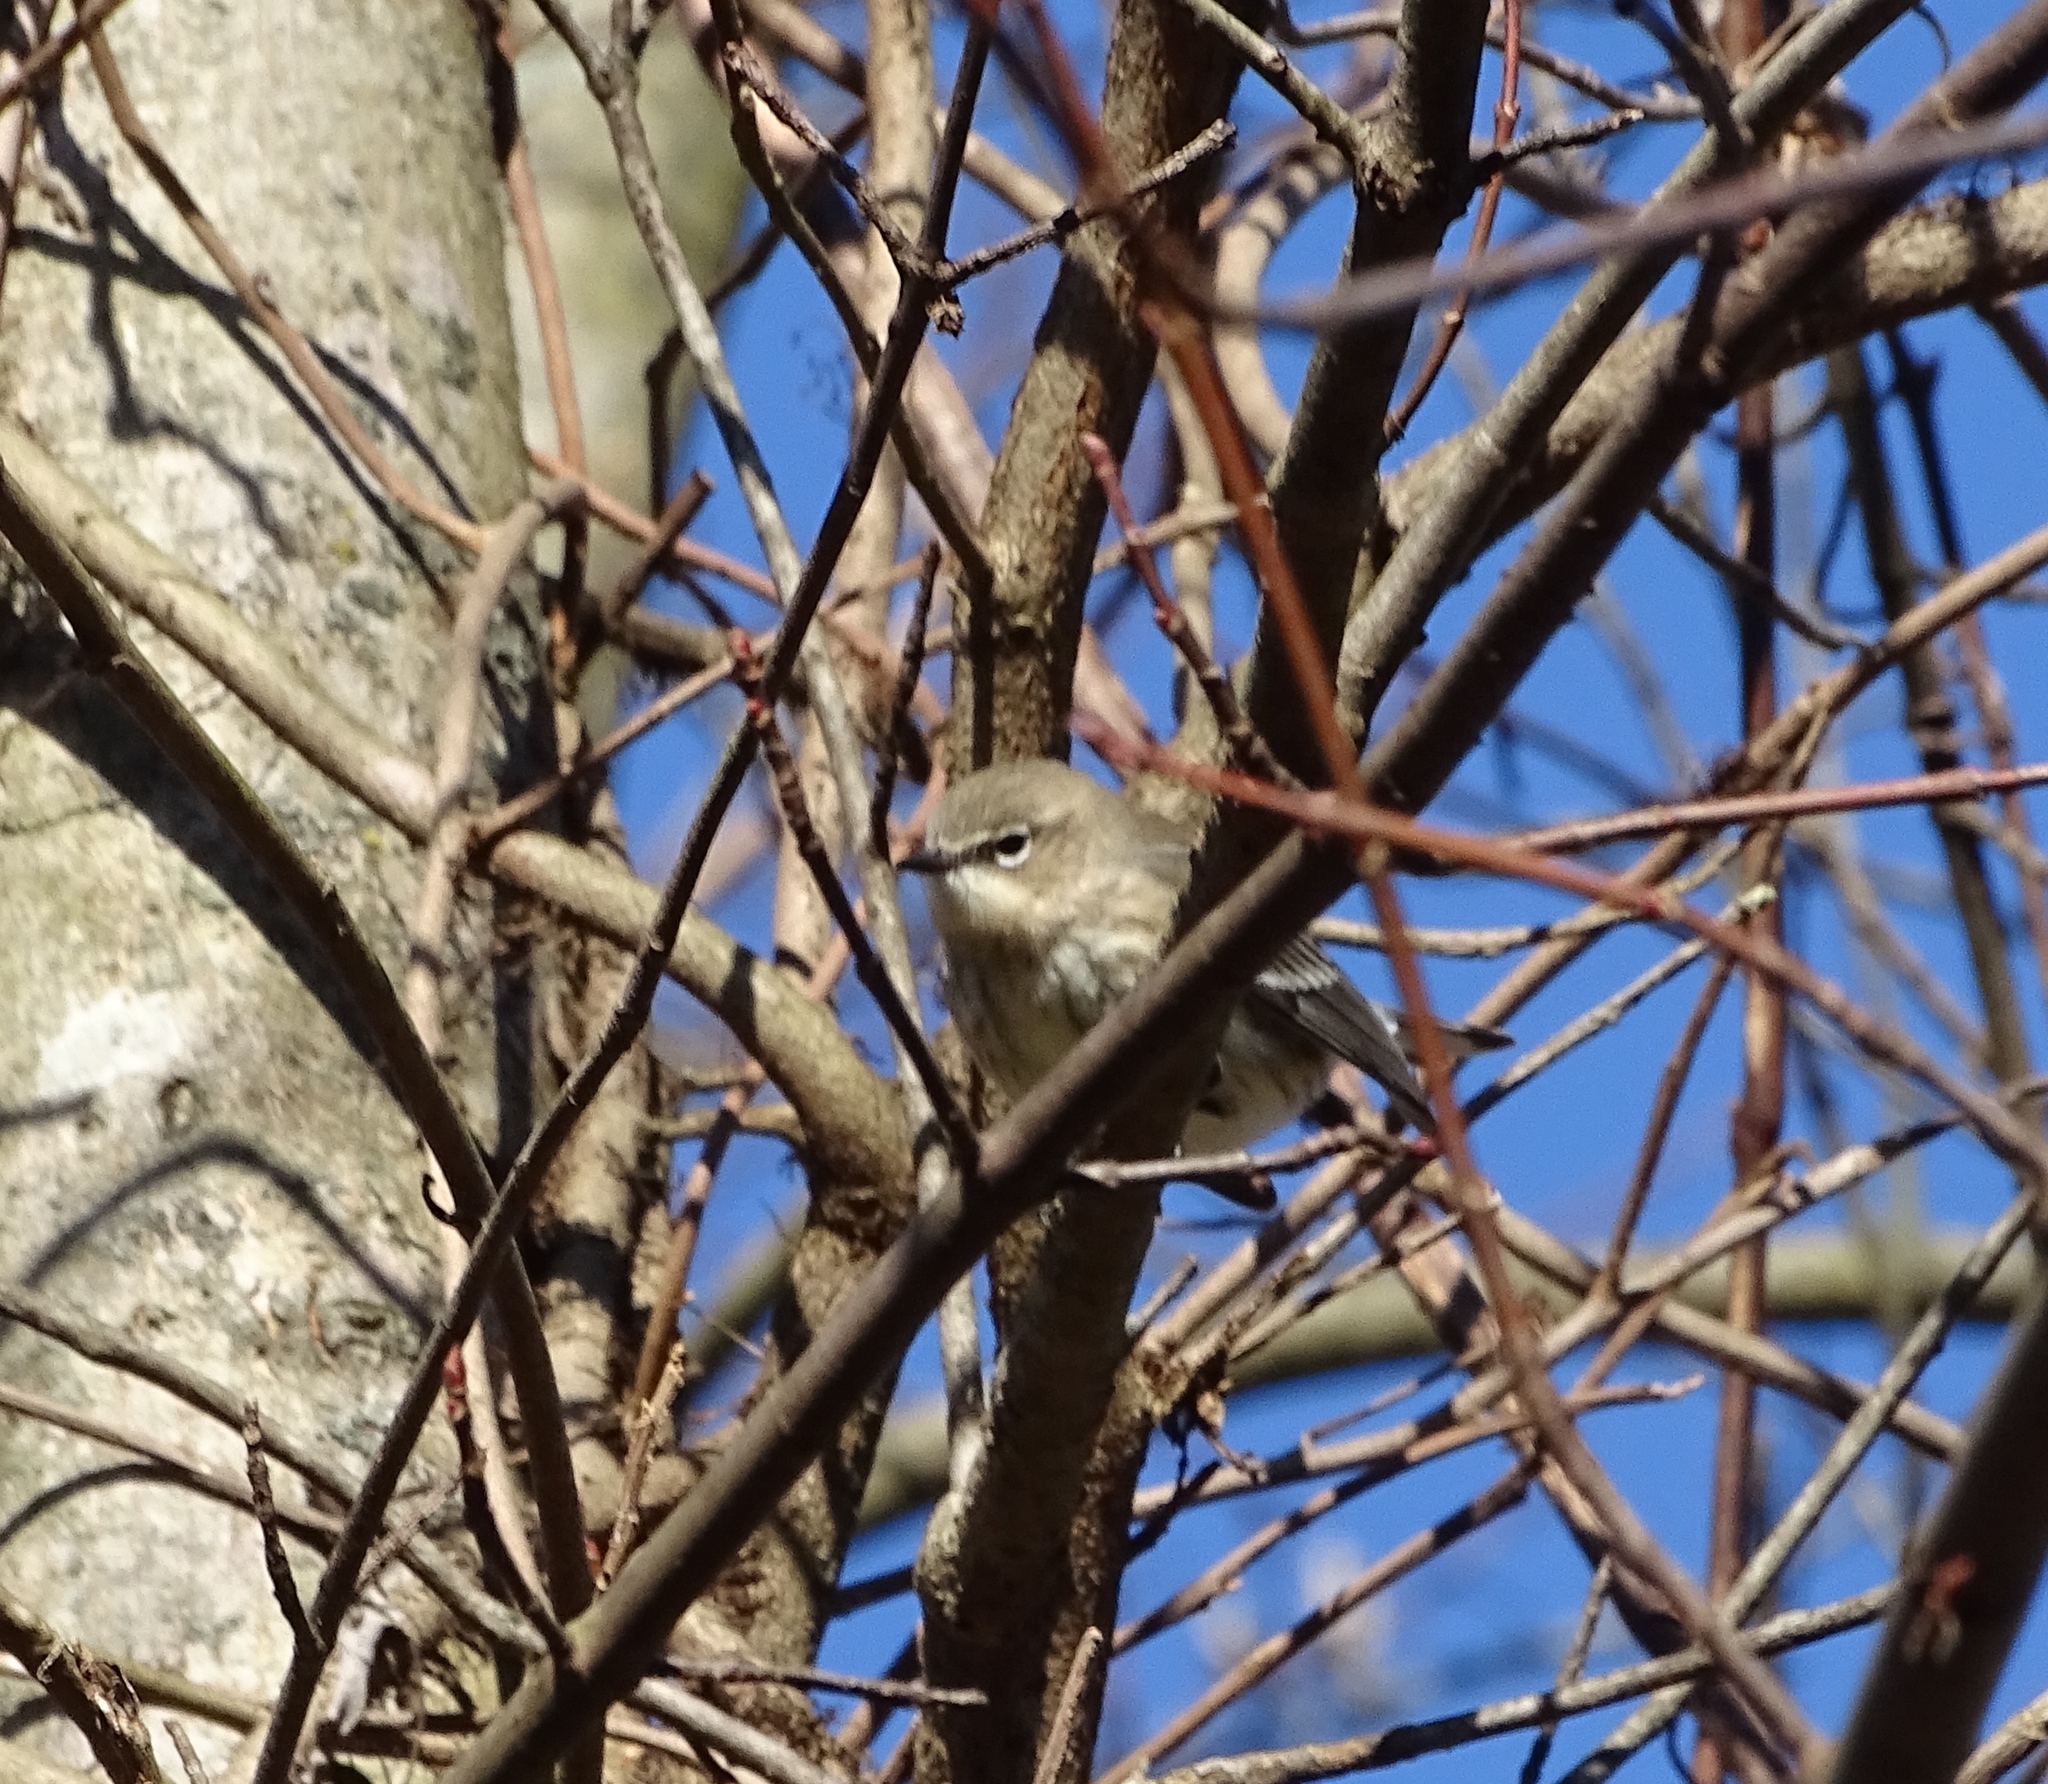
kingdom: Animalia
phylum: Chordata
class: Aves
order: Passeriformes
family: Parulidae
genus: Setophaga
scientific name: Setophaga coronata
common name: Myrtle warbler
